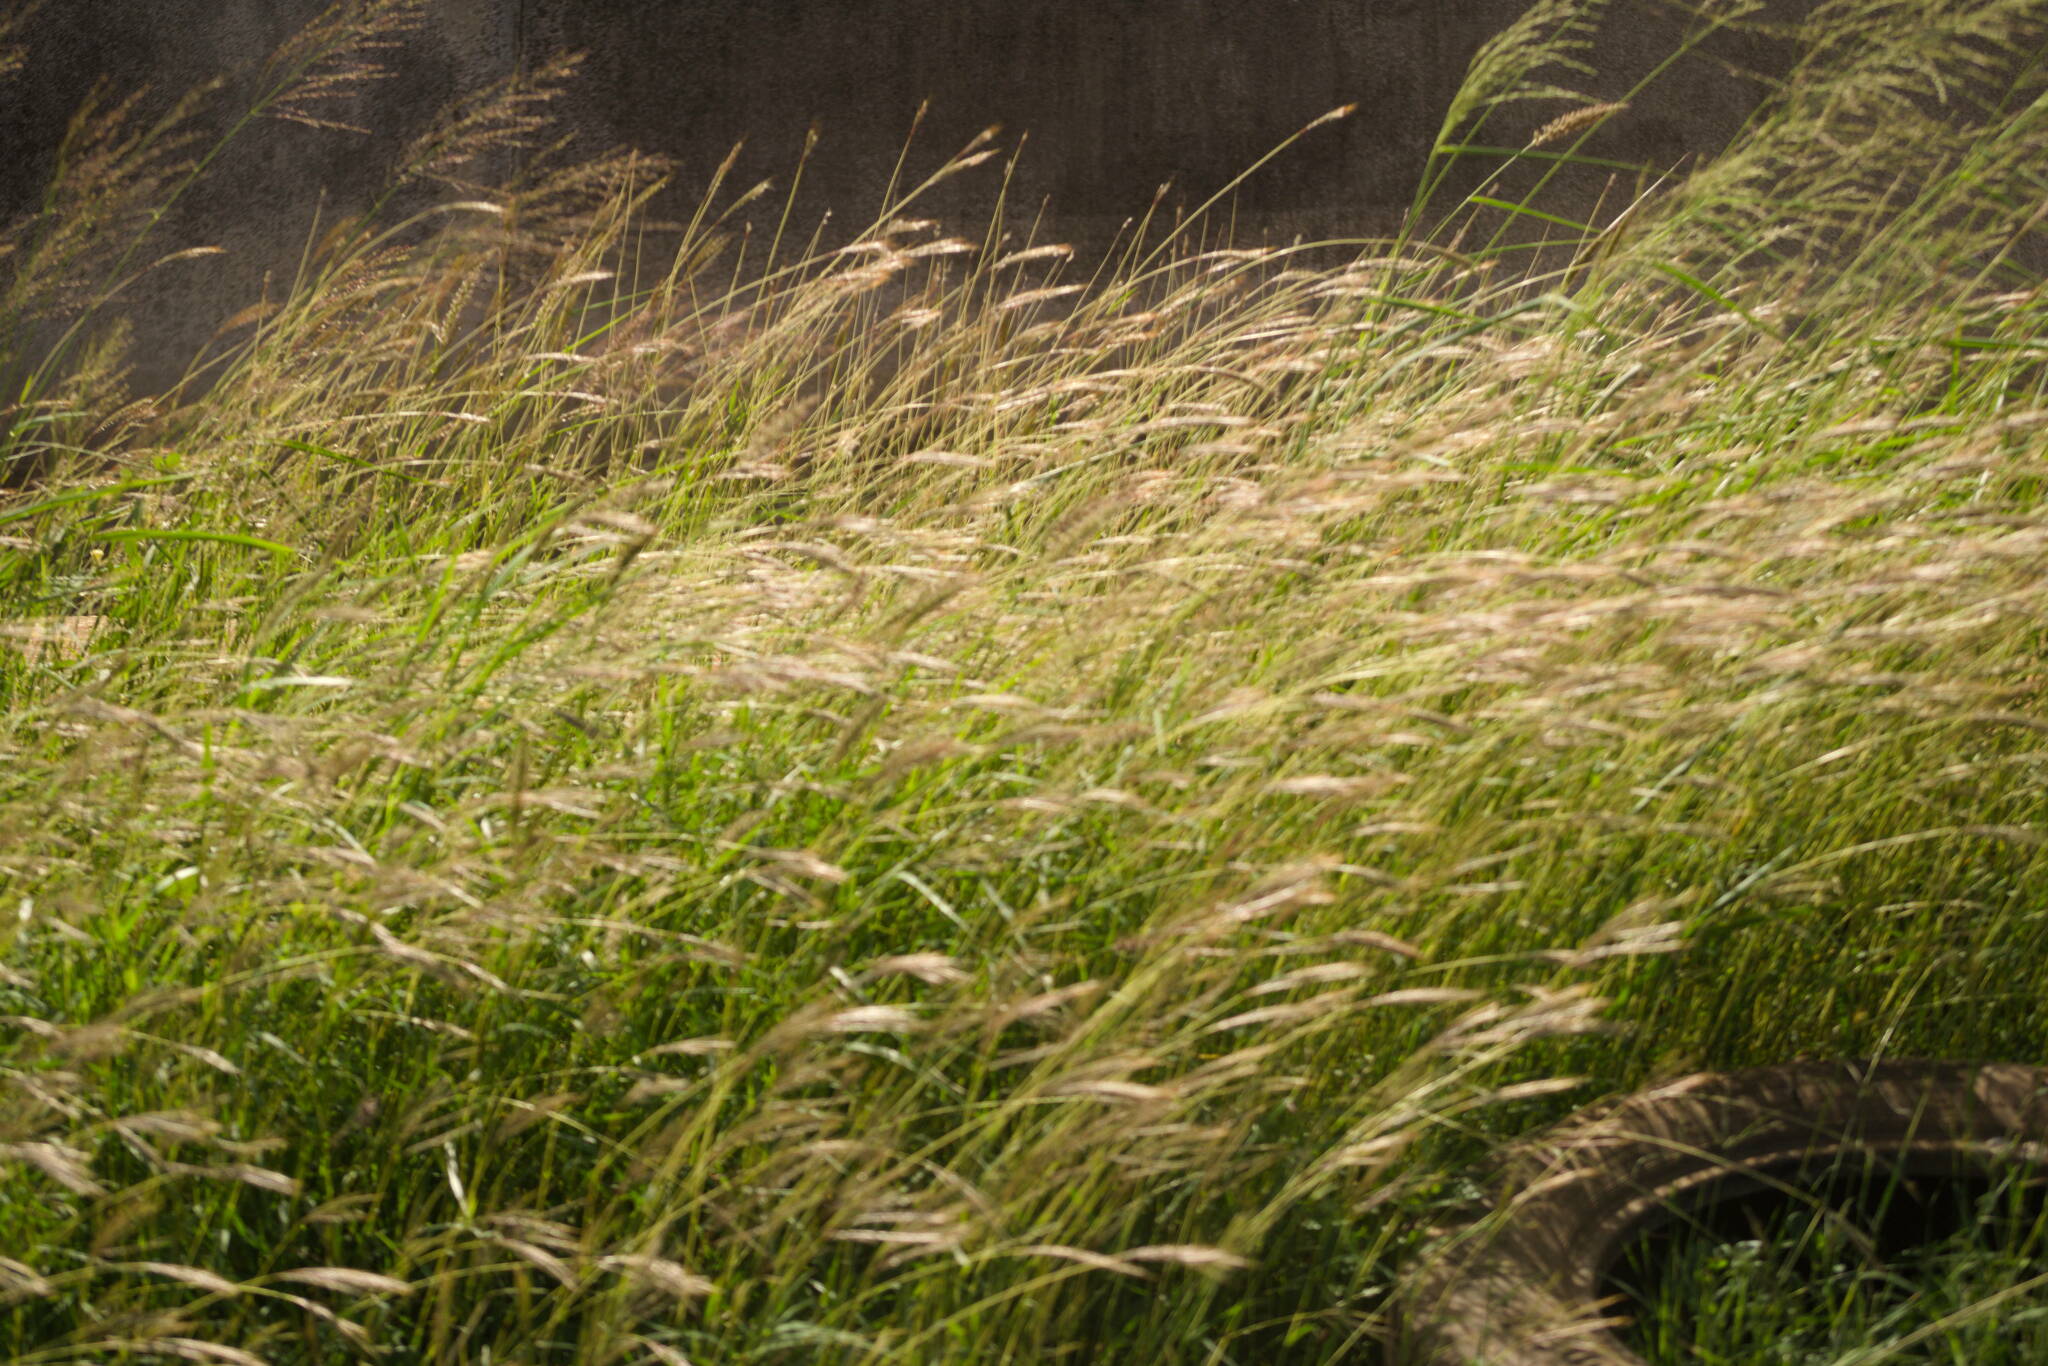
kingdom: Plantae
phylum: Tracheophyta
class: Liliopsida
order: Poales
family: Poaceae
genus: Bothriochloa
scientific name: Bothriochloa pertusa
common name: Pitted beardgrass
